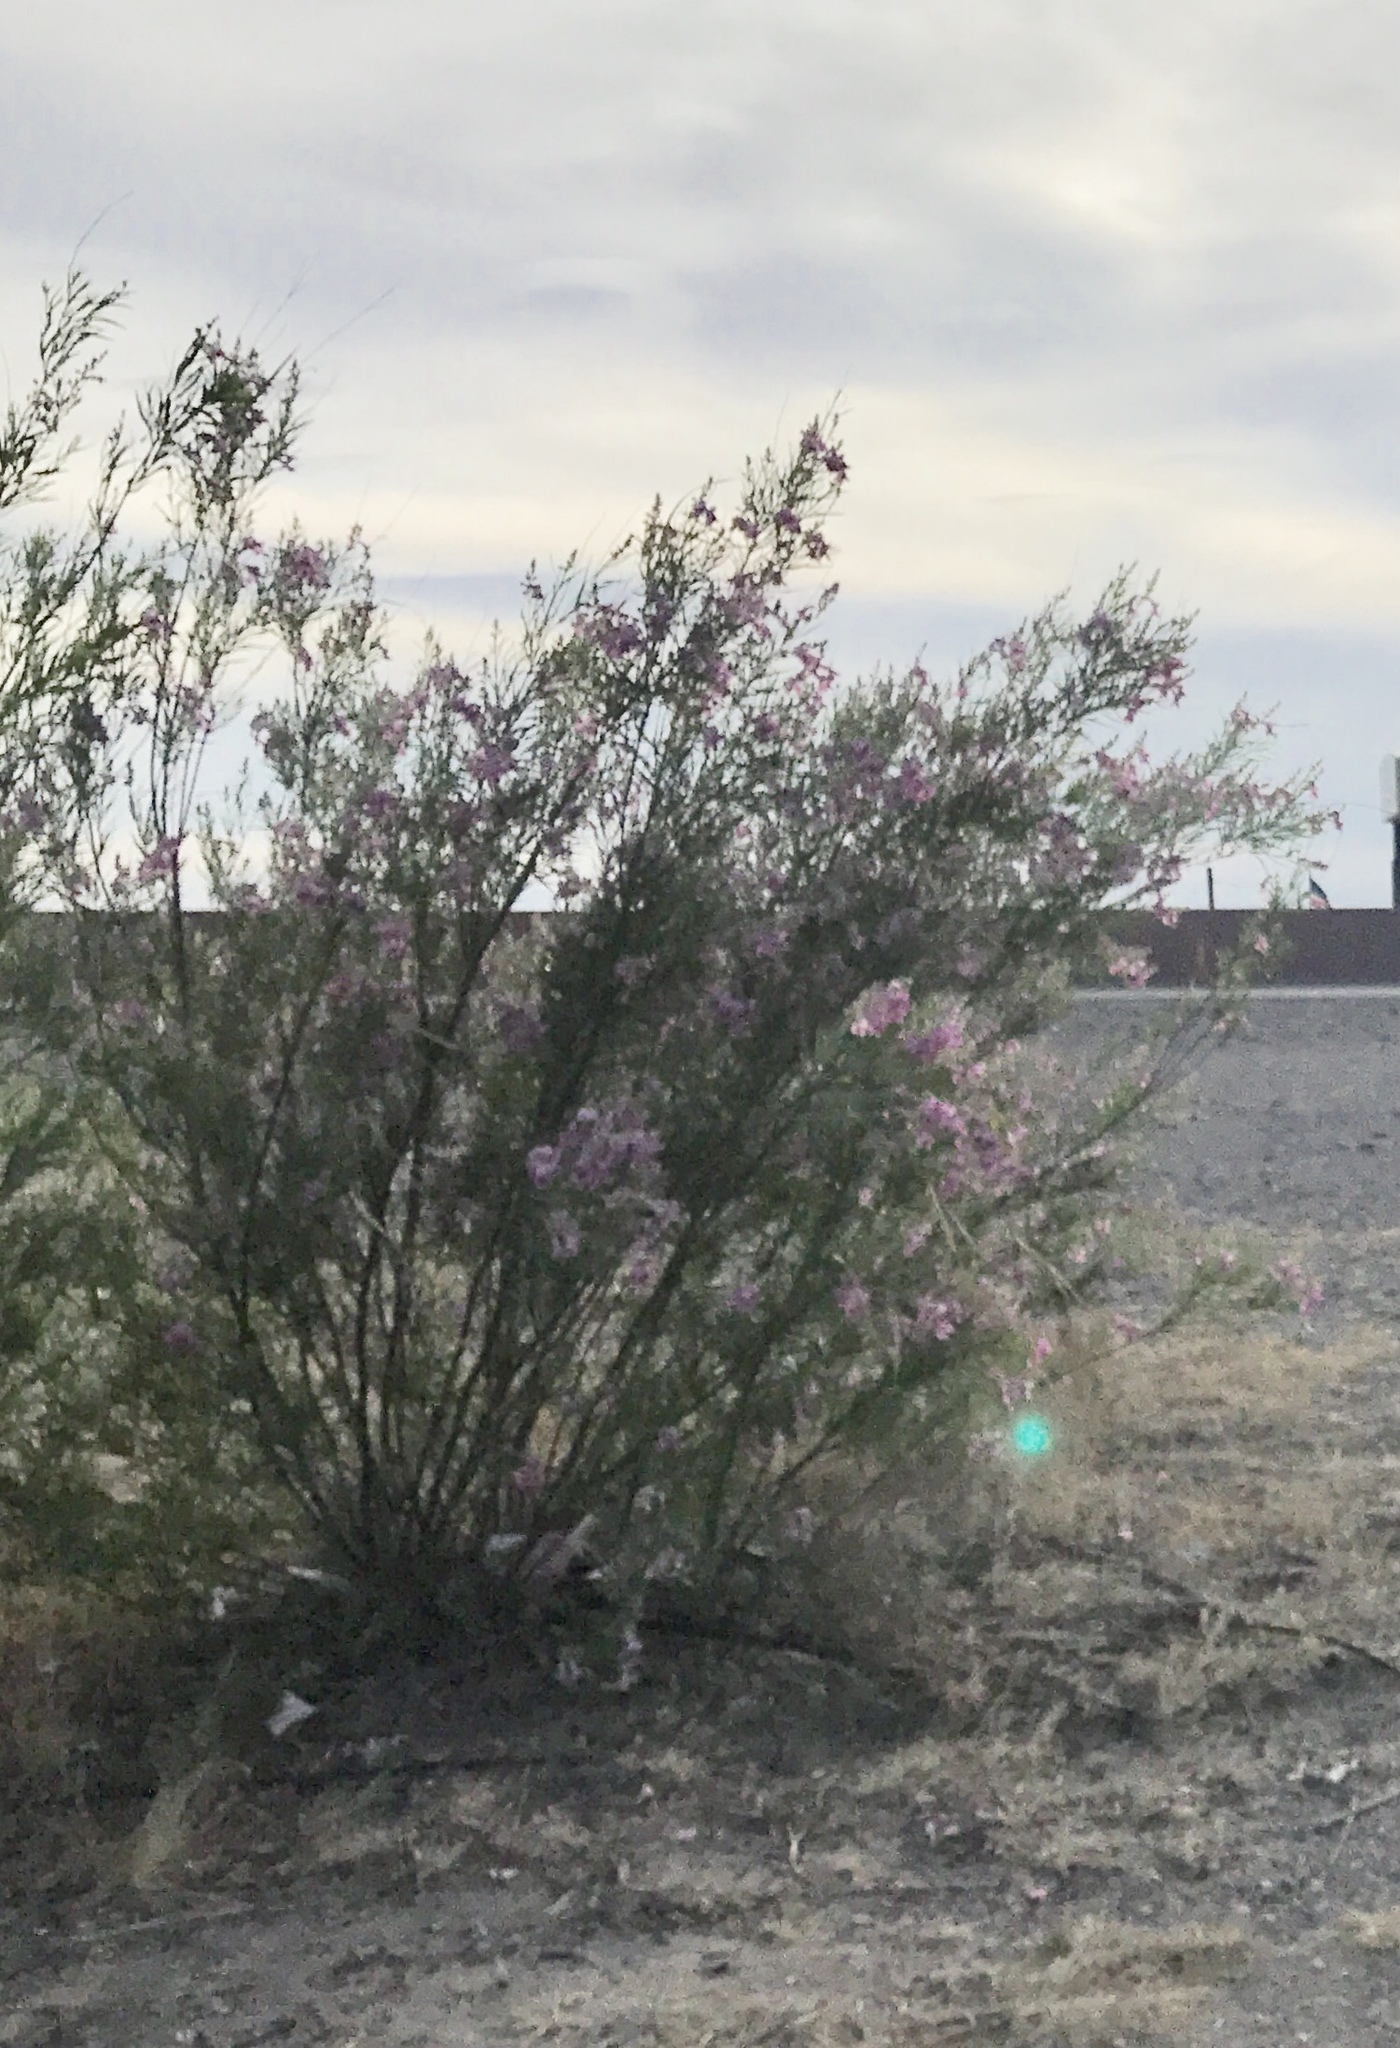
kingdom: Plantae
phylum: Tracheophyta
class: Magnoliopsida
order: Lamiales
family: Bignoniaceae
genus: Chilopsis
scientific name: Chilopsis linearis
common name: Desert-willow
